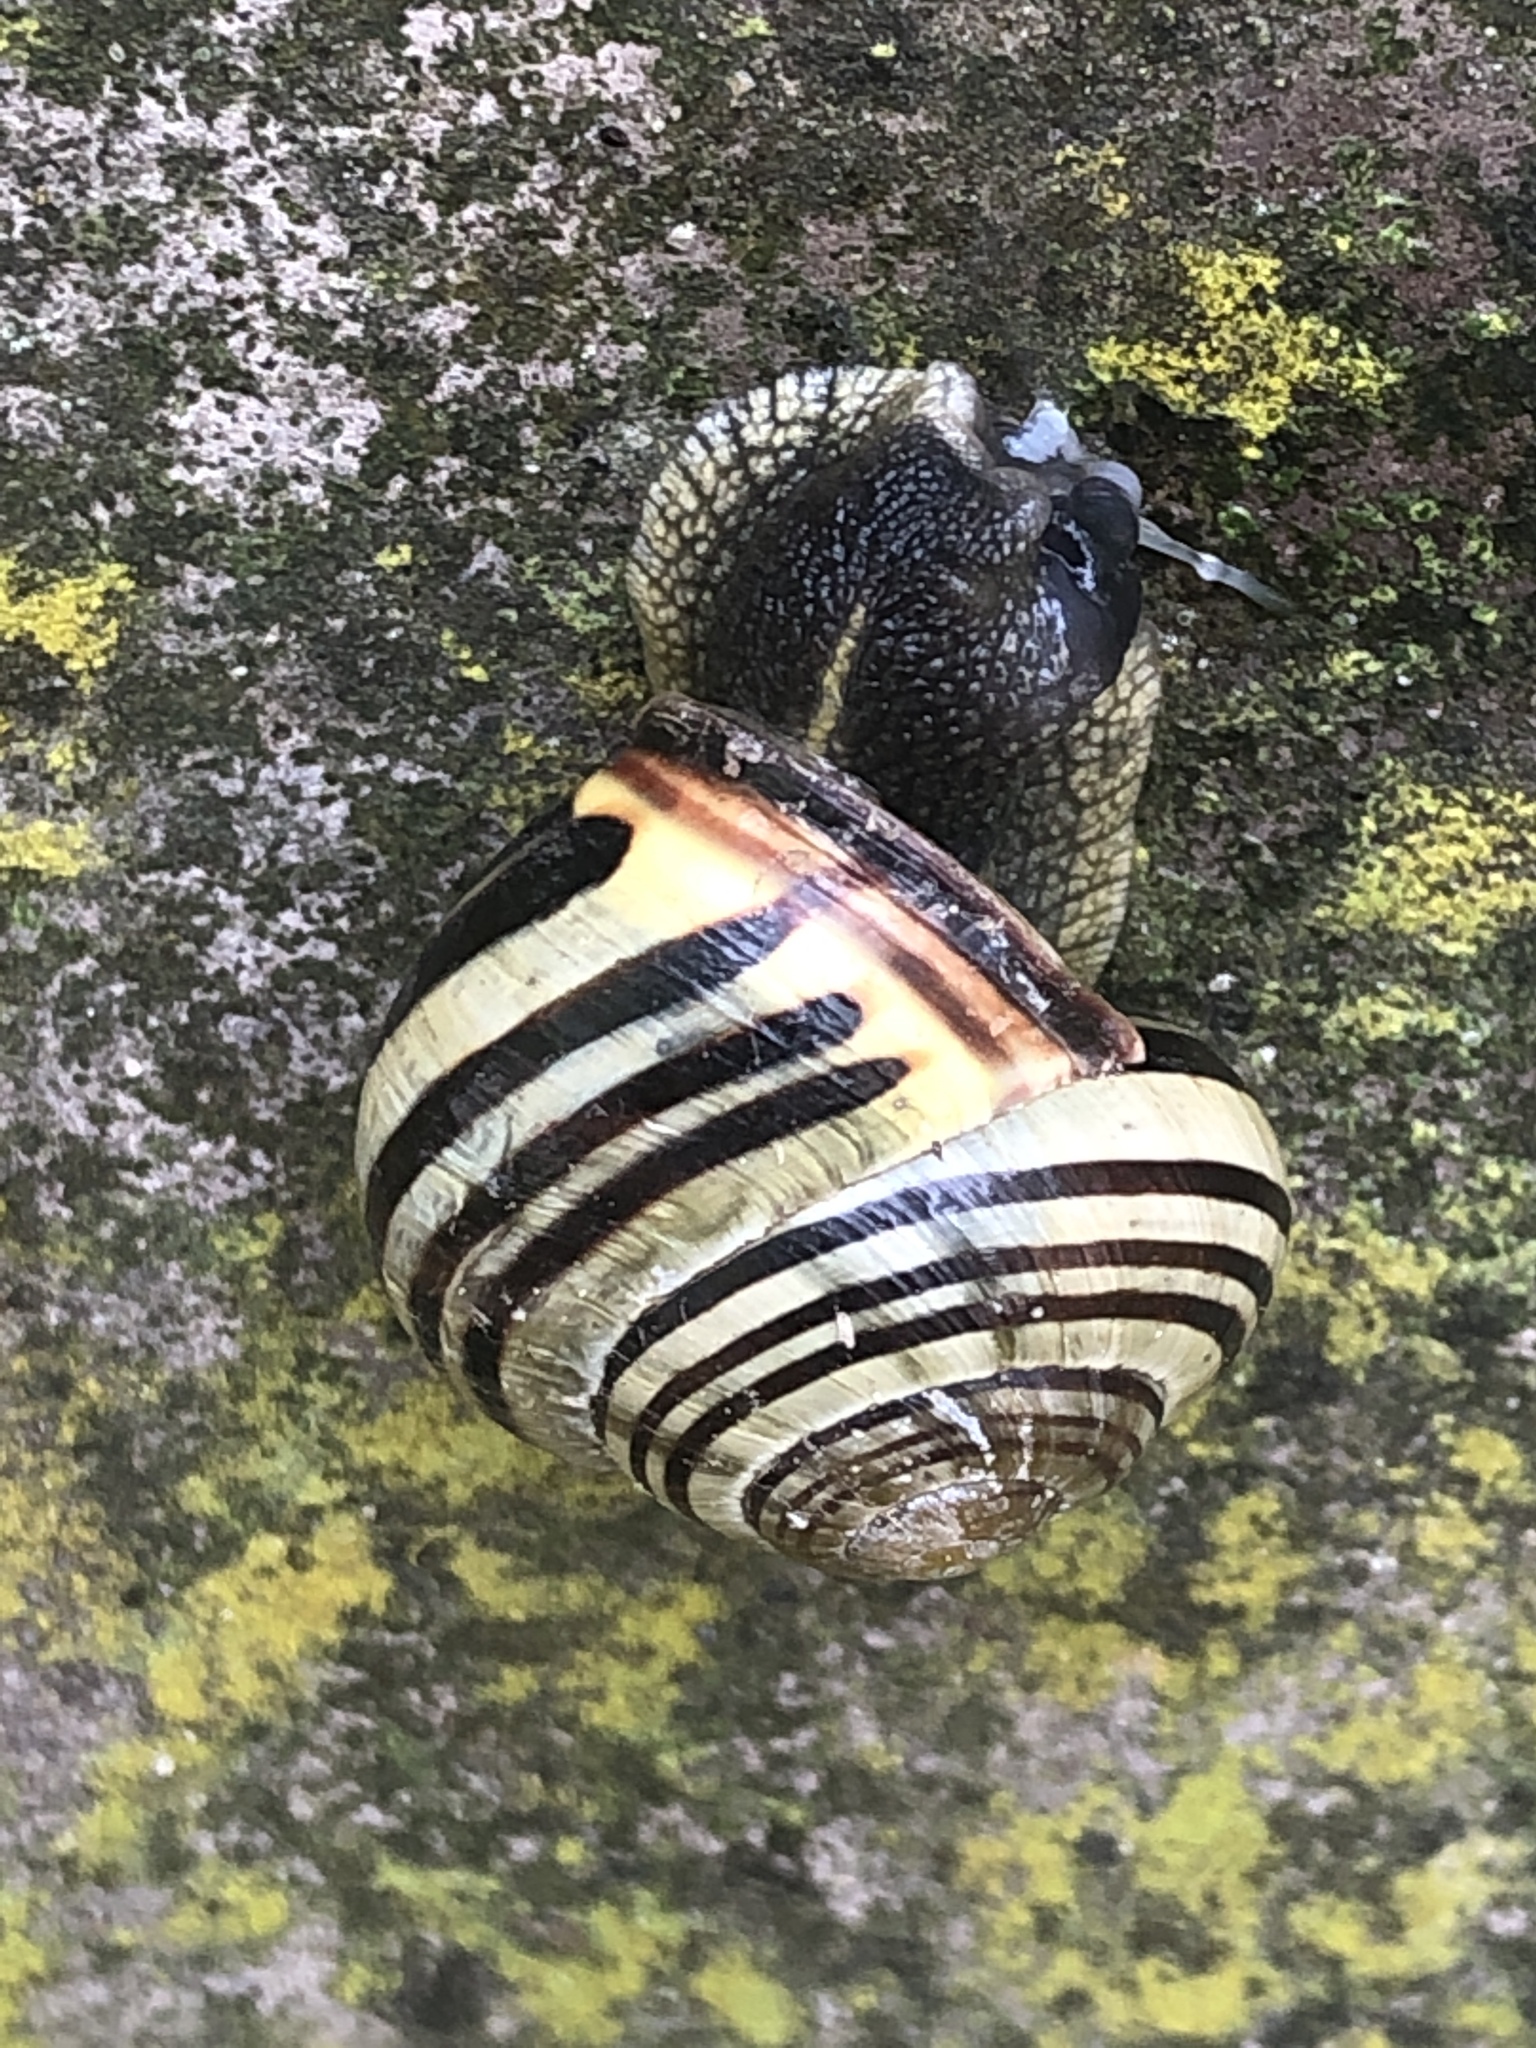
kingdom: Animalia
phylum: Mollusca
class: Gastropoda
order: Stylommatophora
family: Helicidae
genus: Cepaea
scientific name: Cepaea nemoralis
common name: Grovesnail
